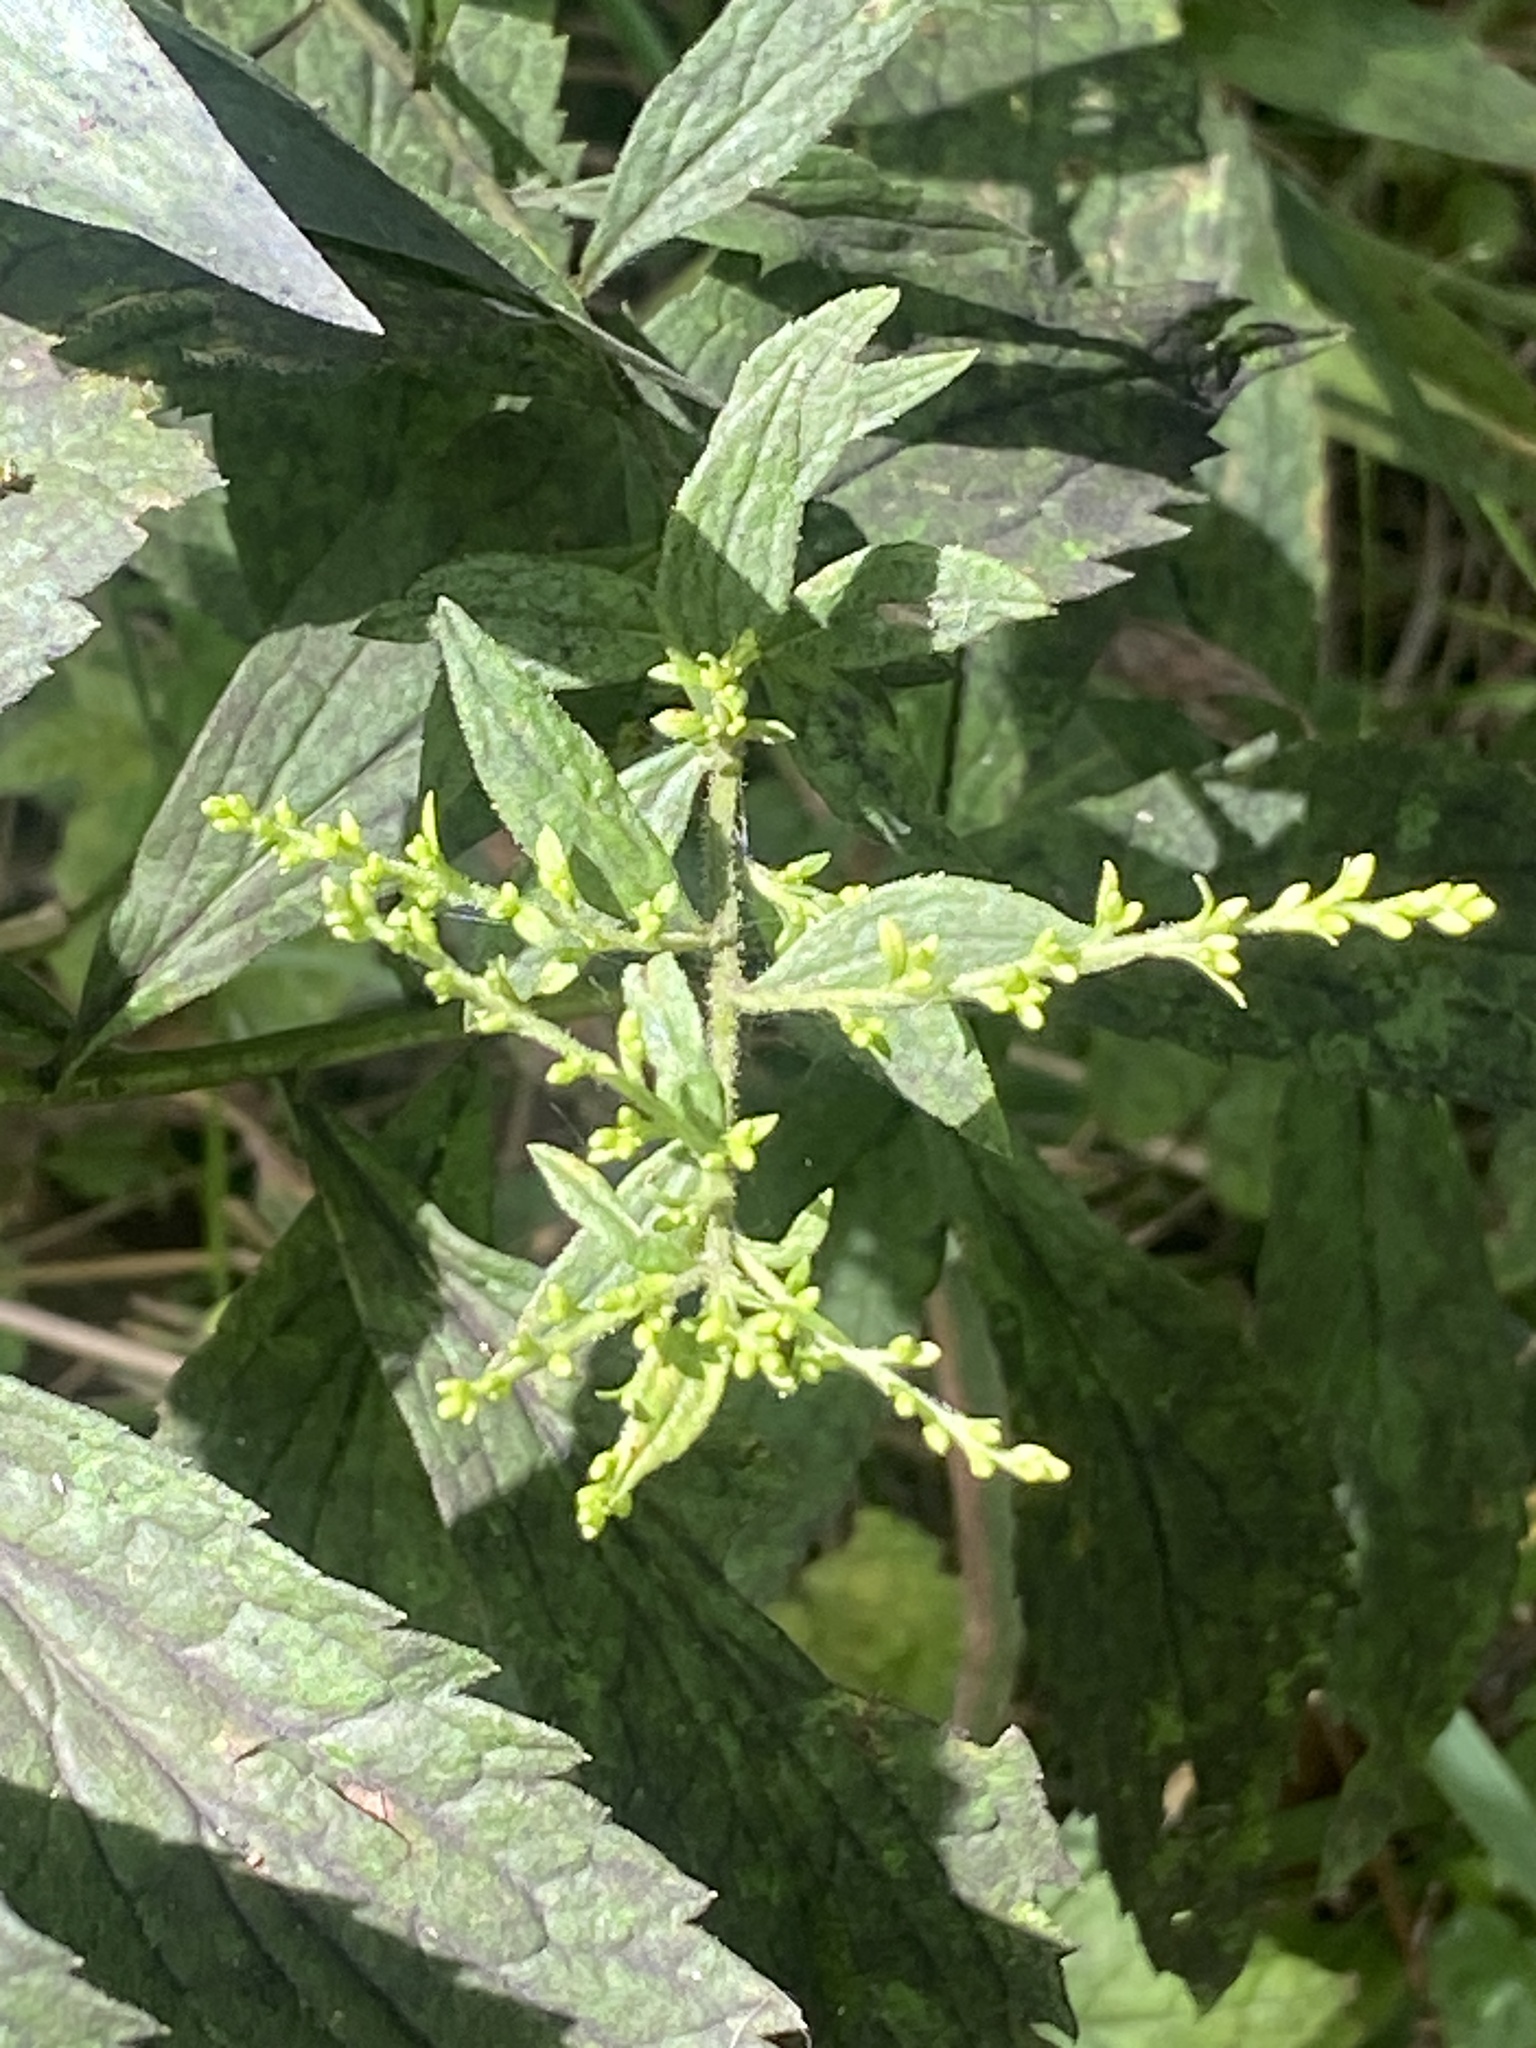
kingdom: Plantae
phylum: Tracheophyta
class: Magnoliopsida
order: Asterales
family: Asteraceae
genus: Solidago
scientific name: Solidago rugosa
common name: Rough-stemmed goldenrod
